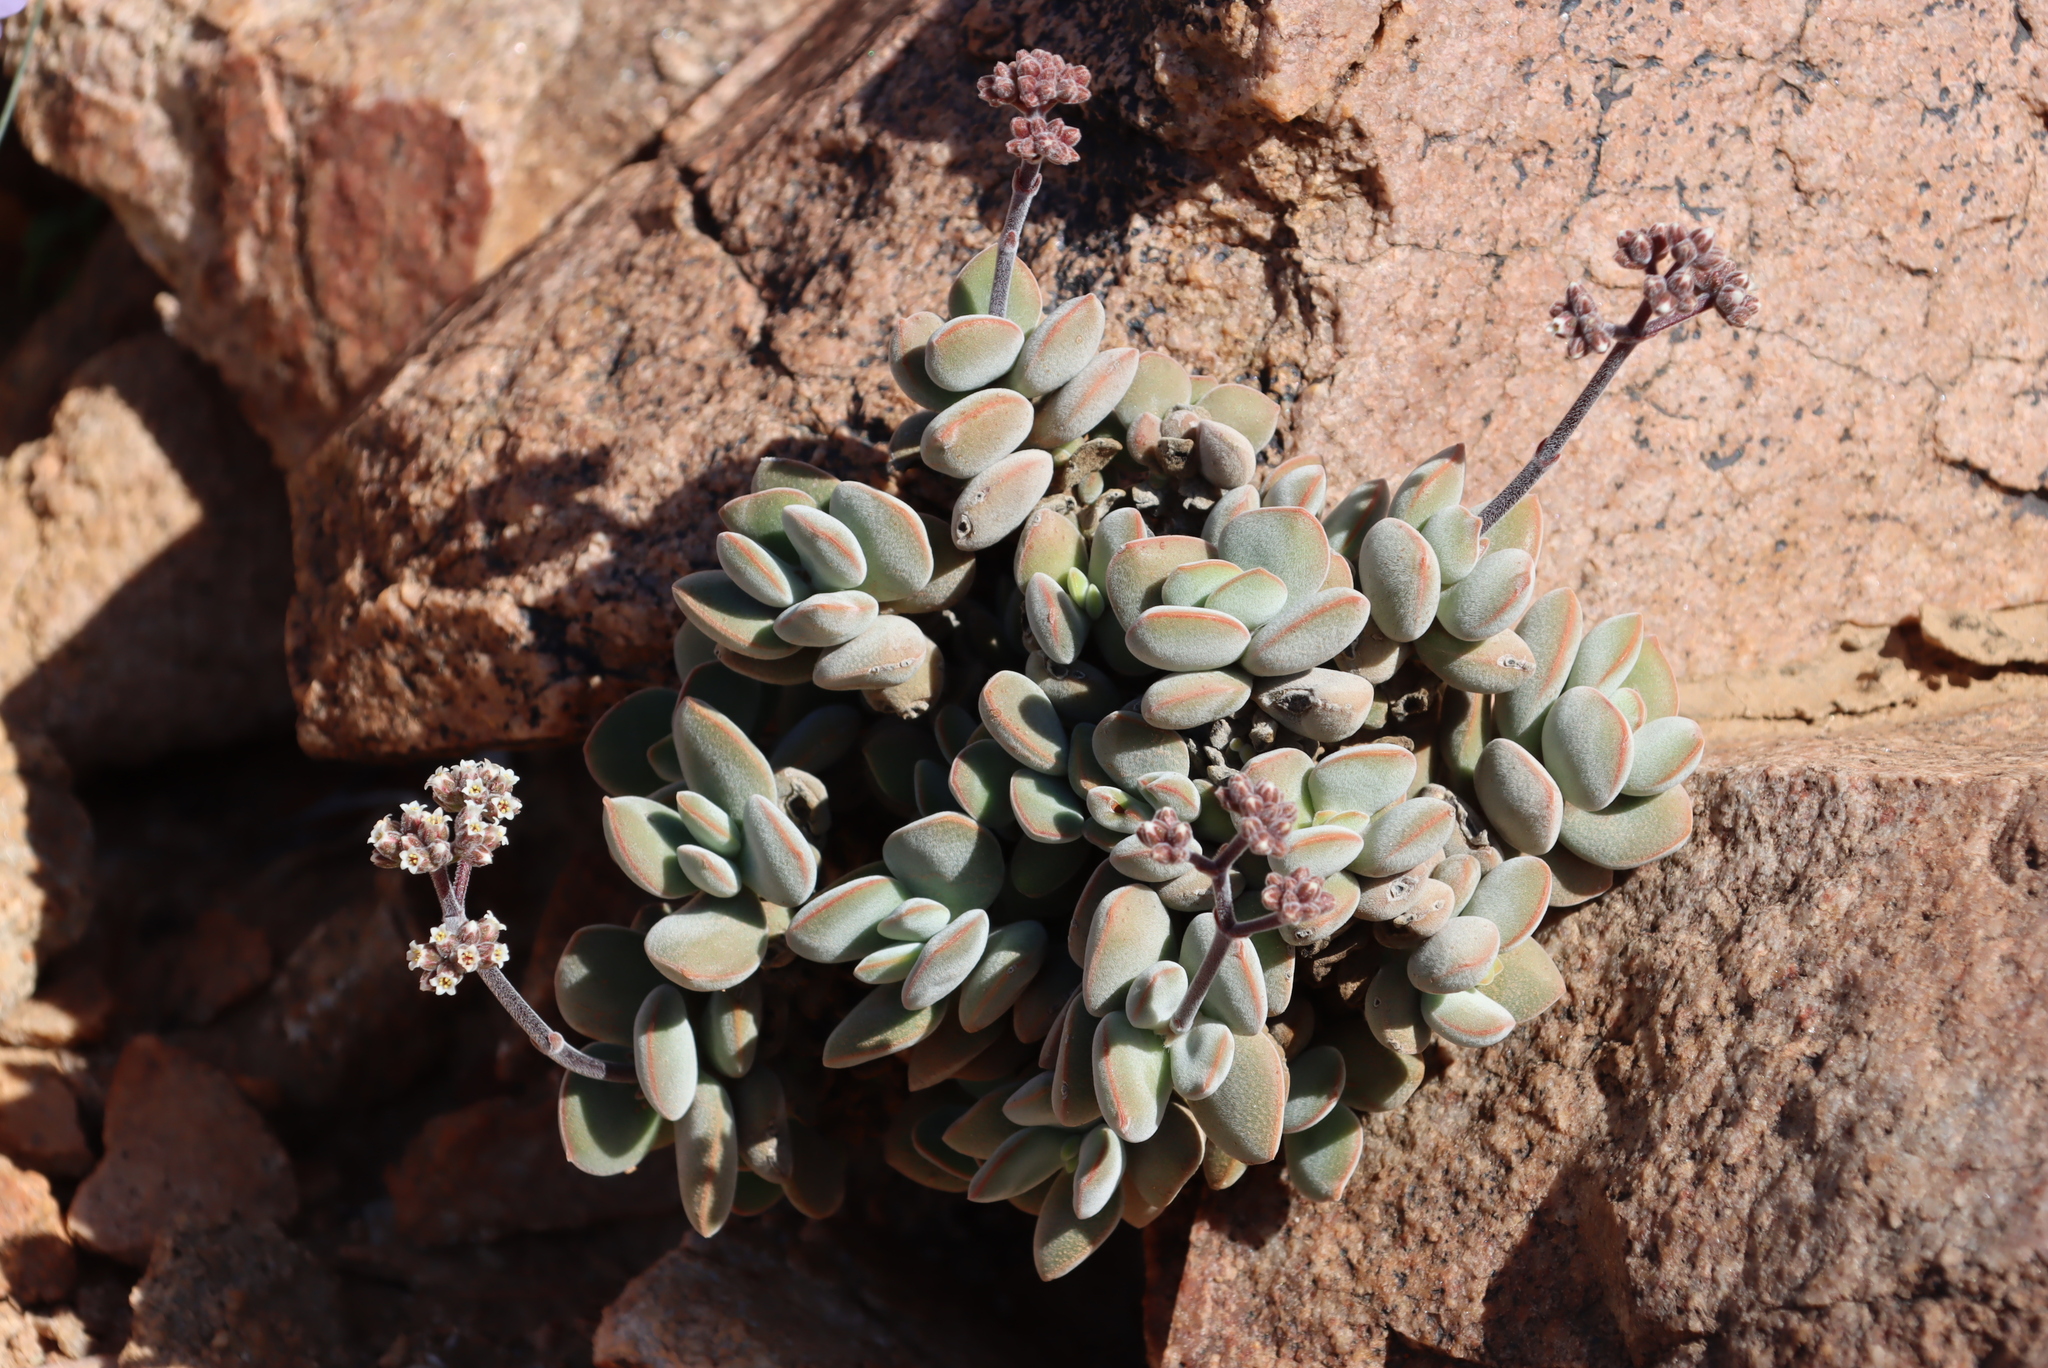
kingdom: Plantae
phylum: Tracheophyta
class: Magnoliopsida
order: Saxifragales
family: Crassulaceae
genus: Crassula
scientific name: Crassula sericea
